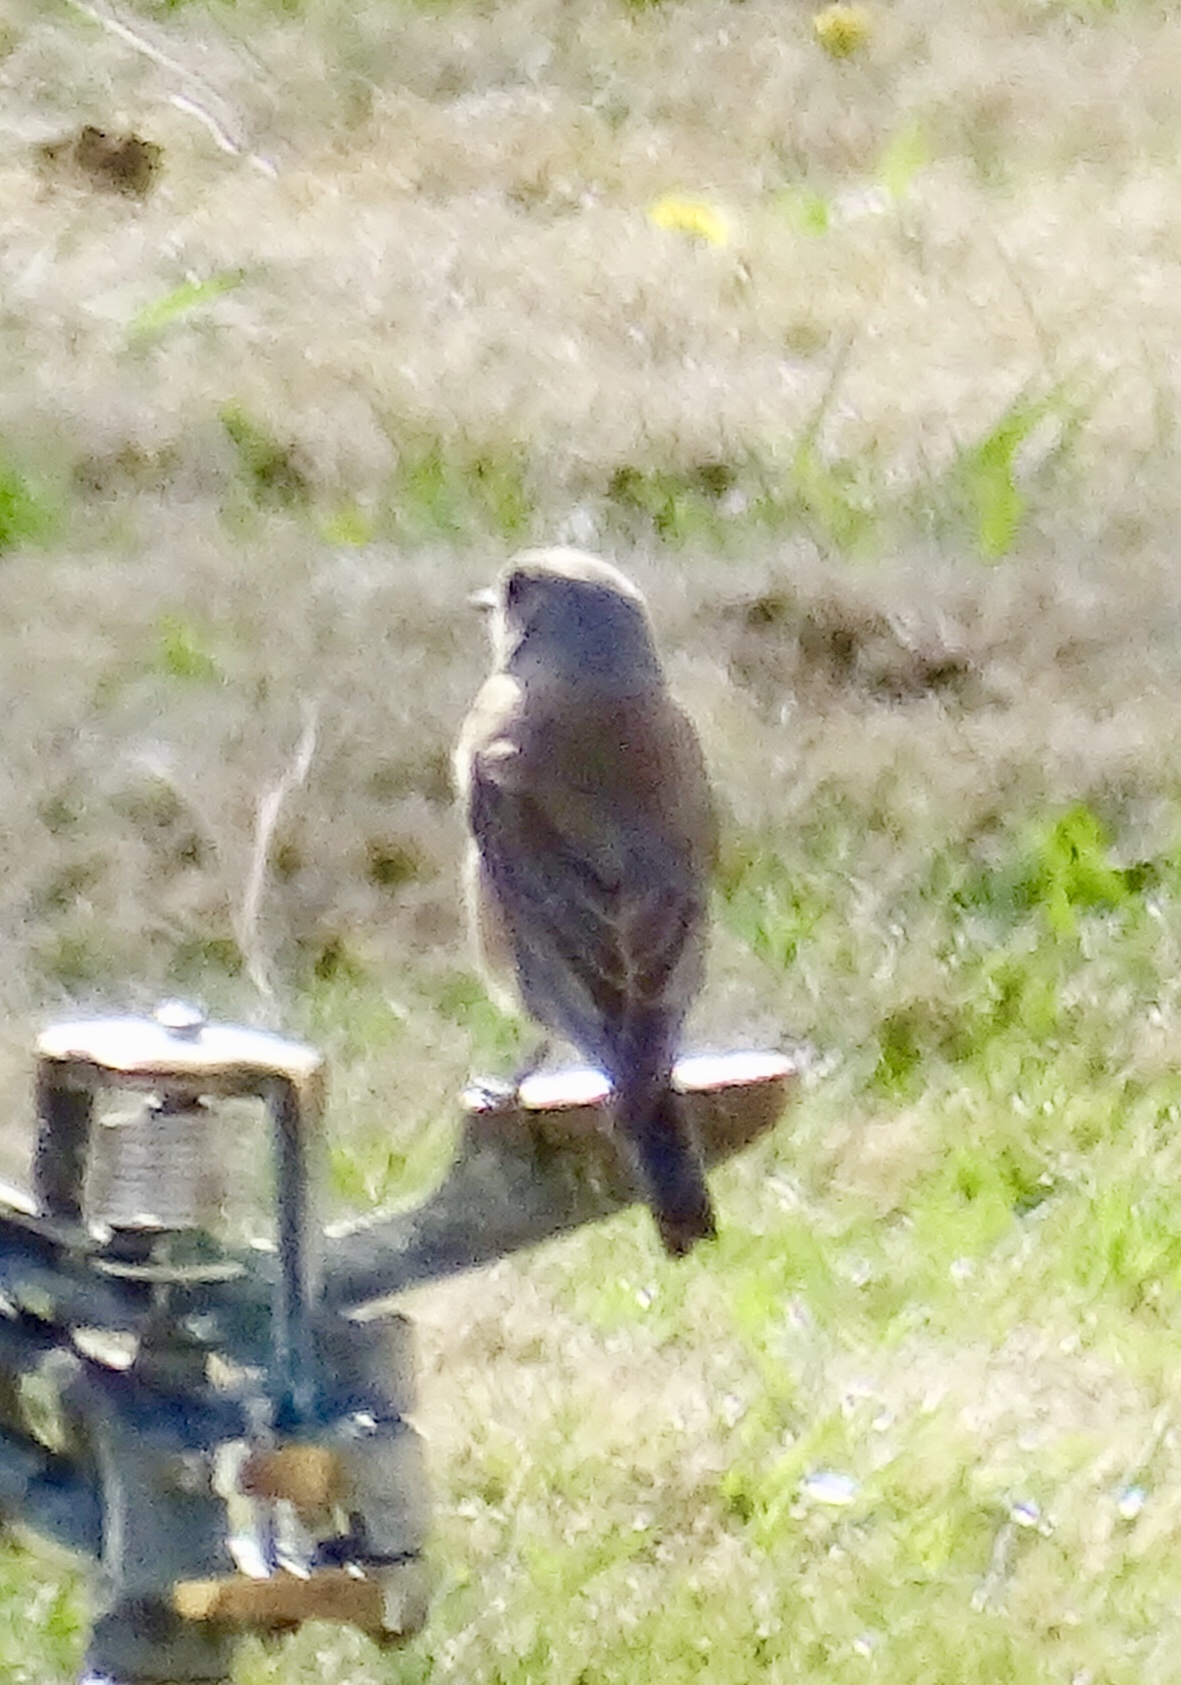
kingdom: Animalia
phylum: Chordata
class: Aves
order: Passeriformes
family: Turdidae
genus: Sialia
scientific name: Sialia mexicana
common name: Western bluebird
